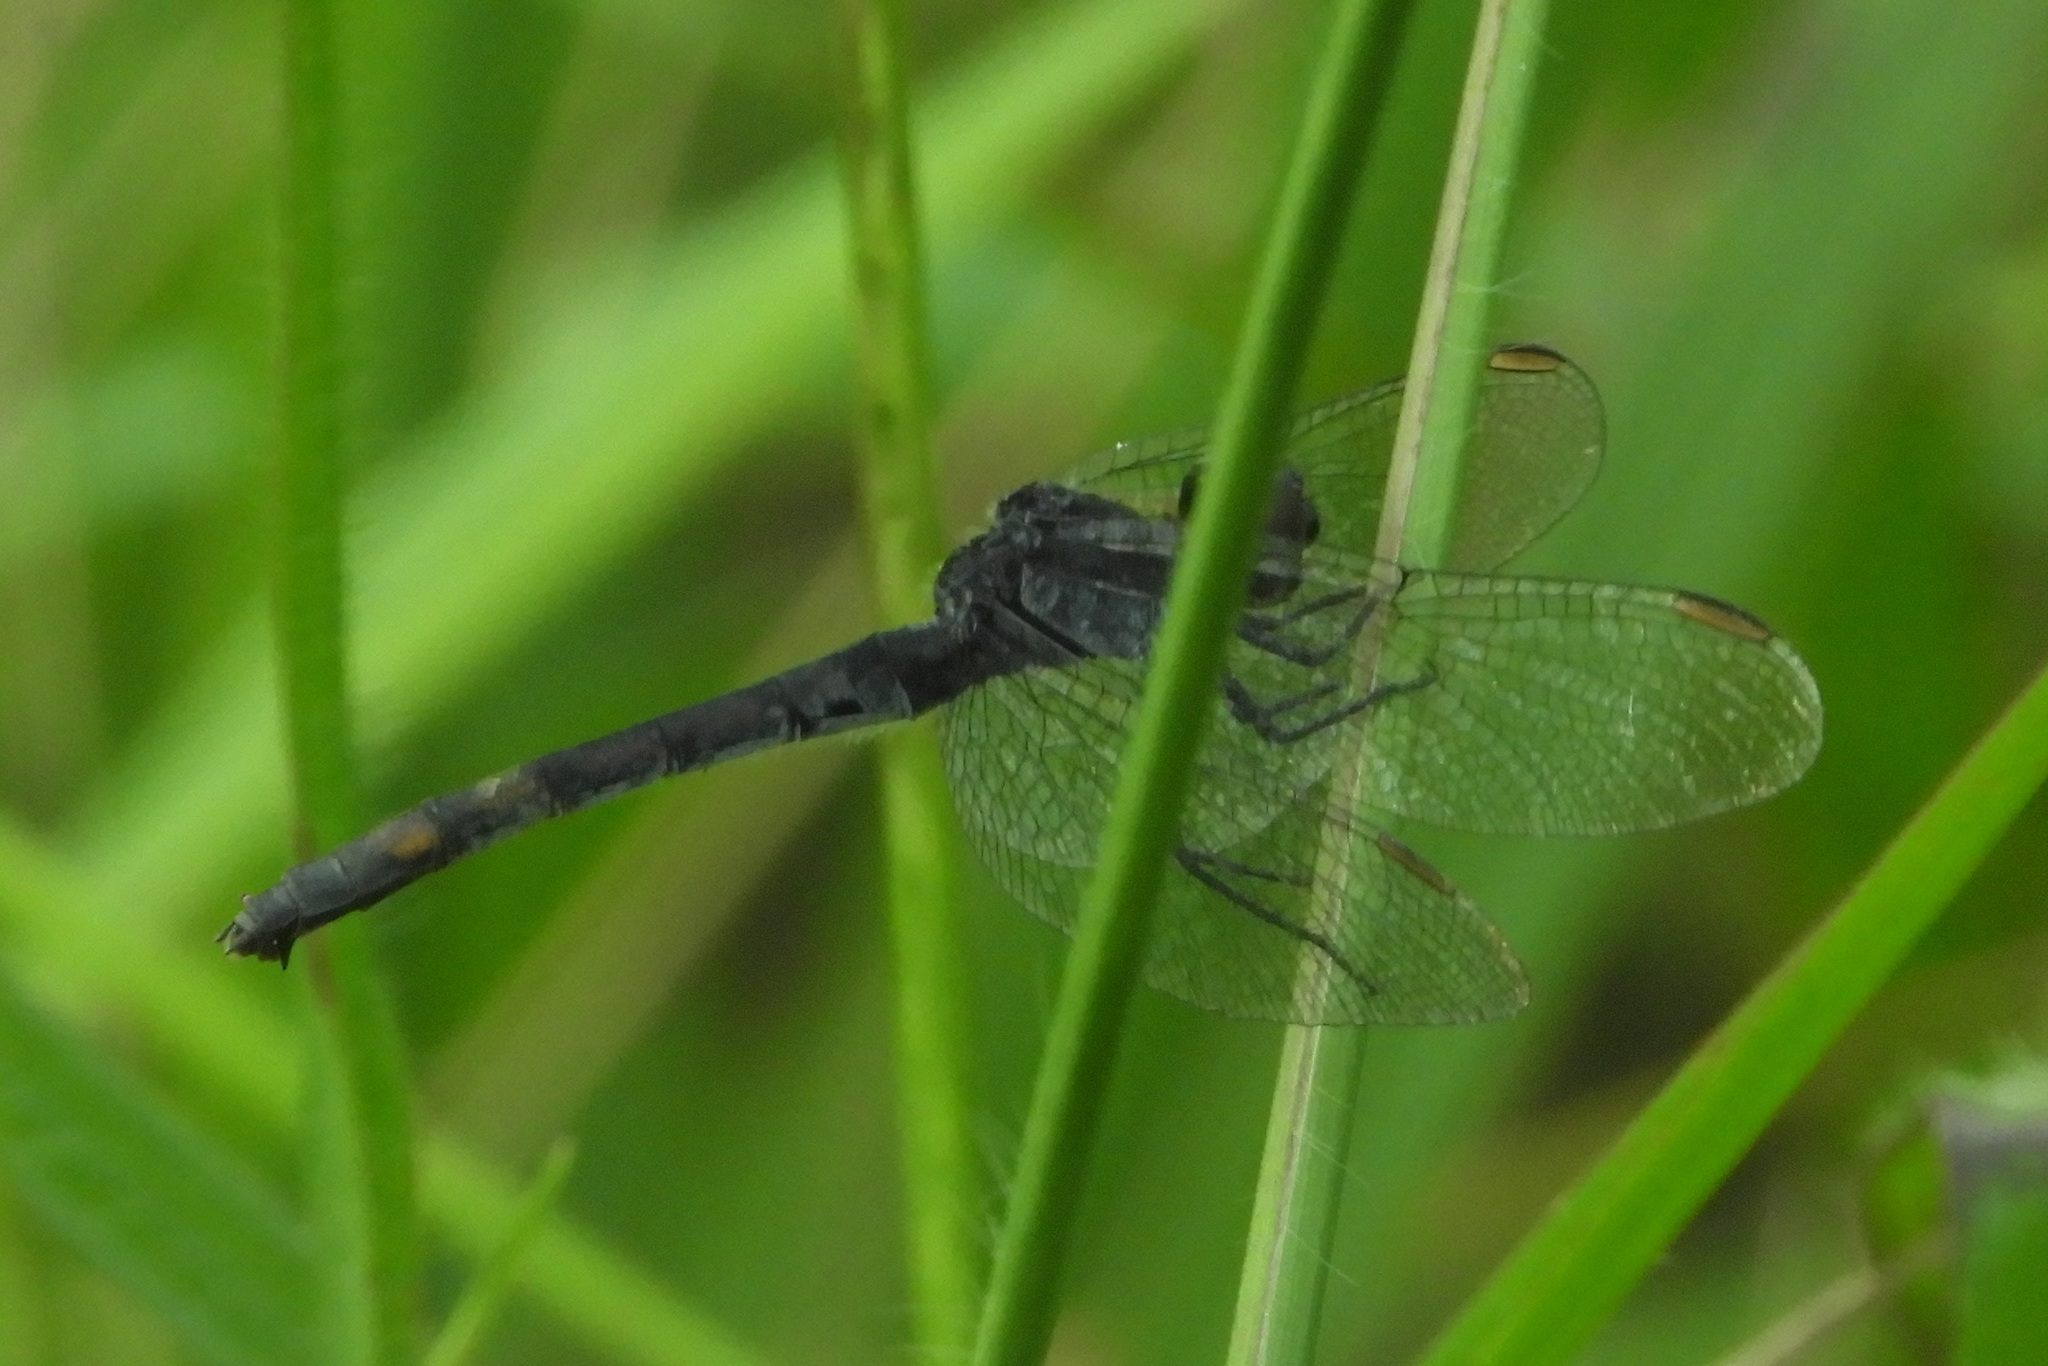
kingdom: Animalia
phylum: Arthropoda
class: Insecta
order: Odonata
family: Libellulidae
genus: Erythrodiplax
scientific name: Erythrodiplax berenice
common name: Seaside dragonlet
